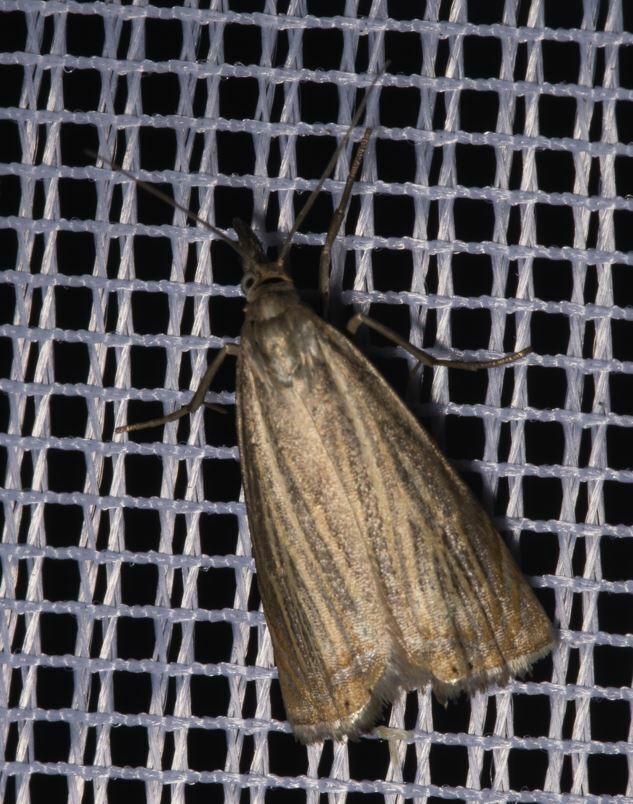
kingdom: Animalia
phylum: Arthropoda
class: Insecta
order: Lepidoptera
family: Crambidae
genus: Chrysoteuchia
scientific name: Chrysoteuchia culmella
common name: Garden grass-veneer
